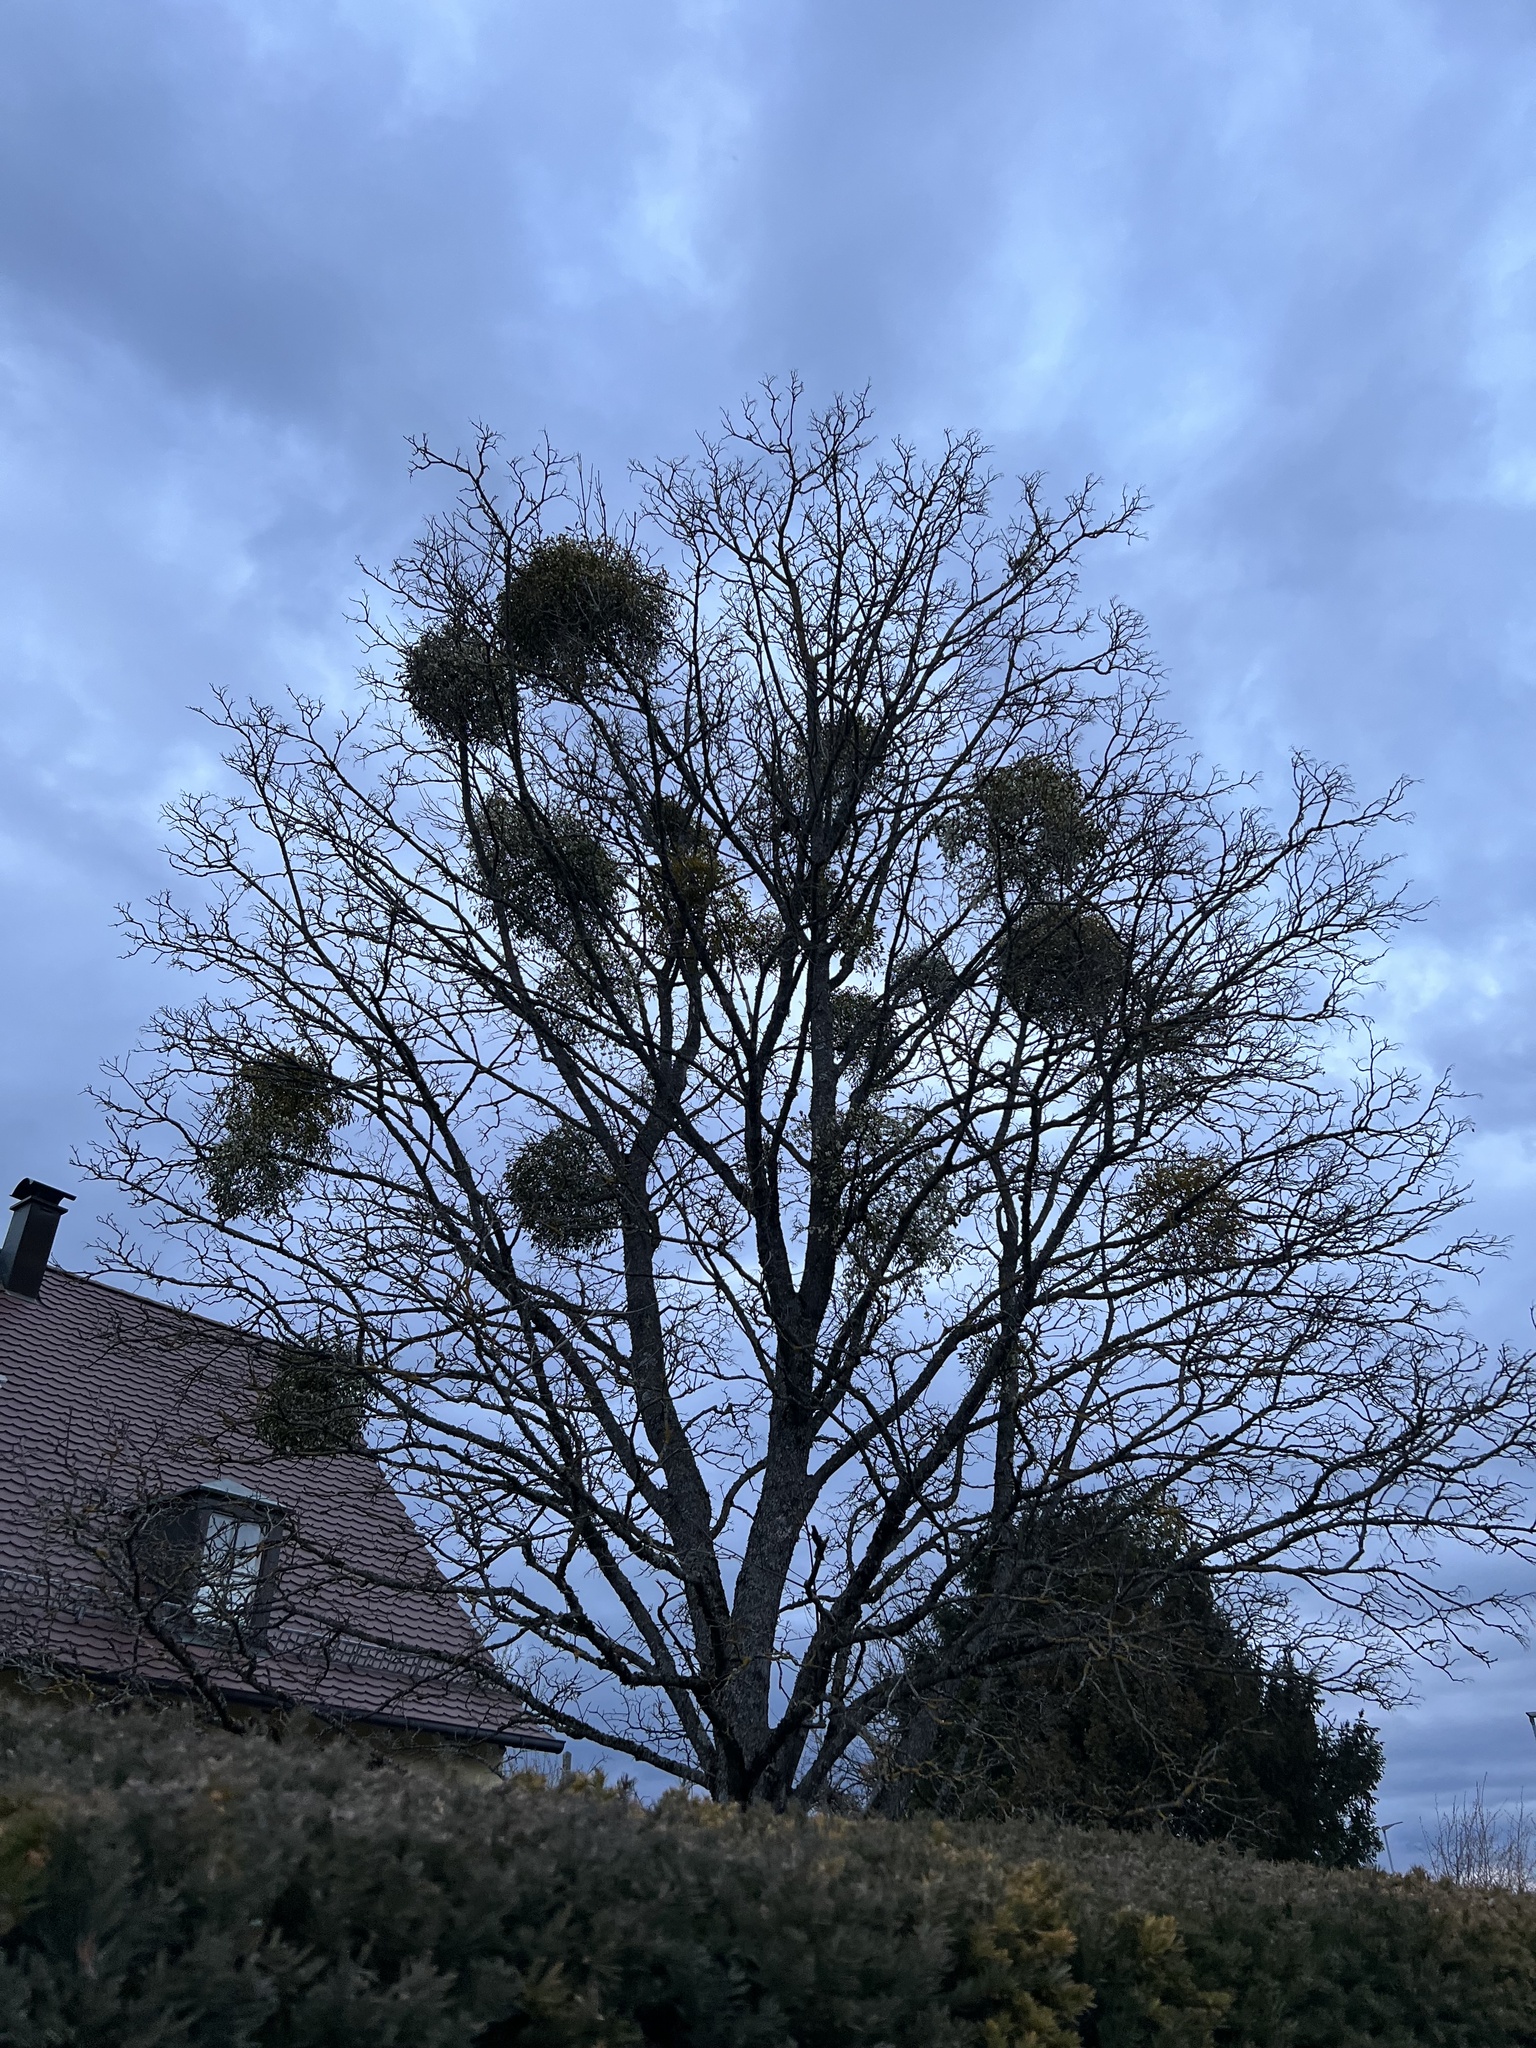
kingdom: Plantae
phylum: Tracheophyta
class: Magnoliopsida
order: Santalales
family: Viscaceae
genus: Viscum
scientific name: Viscum album
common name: Mistletoe
